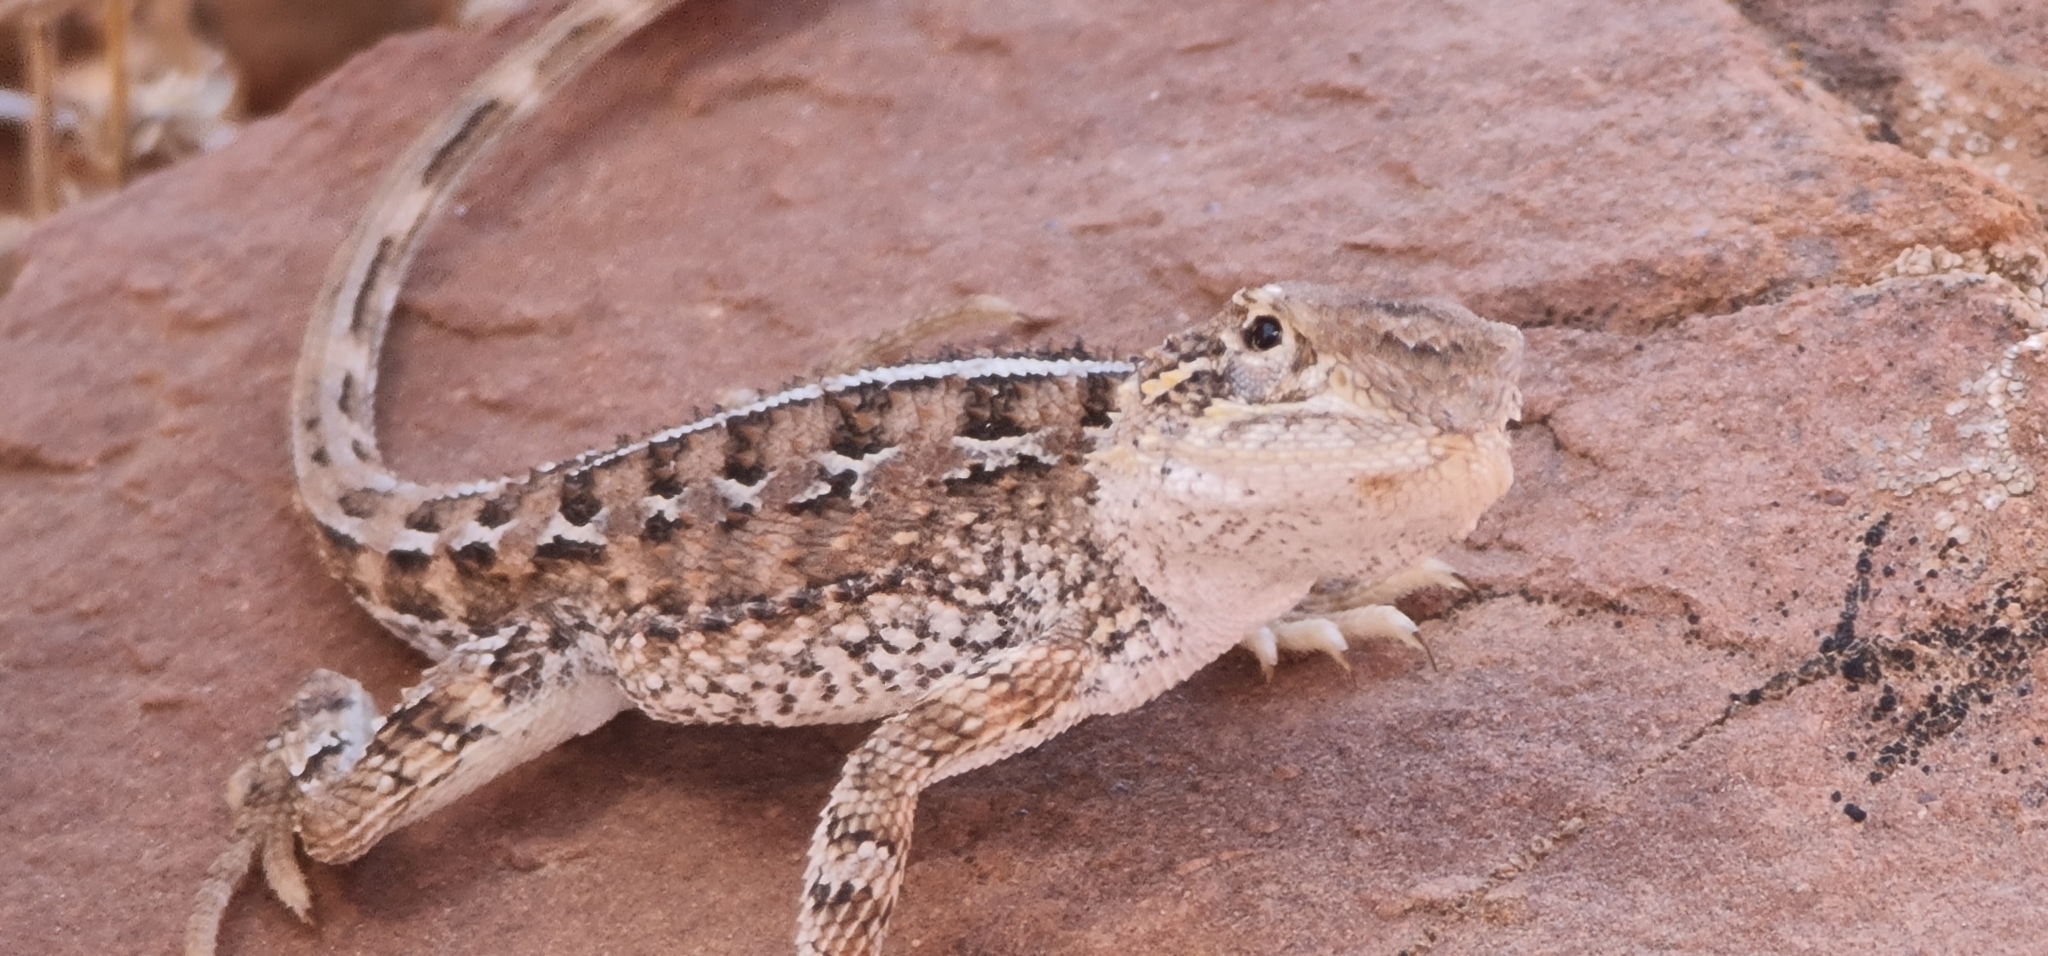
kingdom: Animalia
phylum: Chordata
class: Squamata
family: Agamidae
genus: Tympanocryptis
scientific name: Tympanocryptis tetraporophora
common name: Eyrean earless dragon
